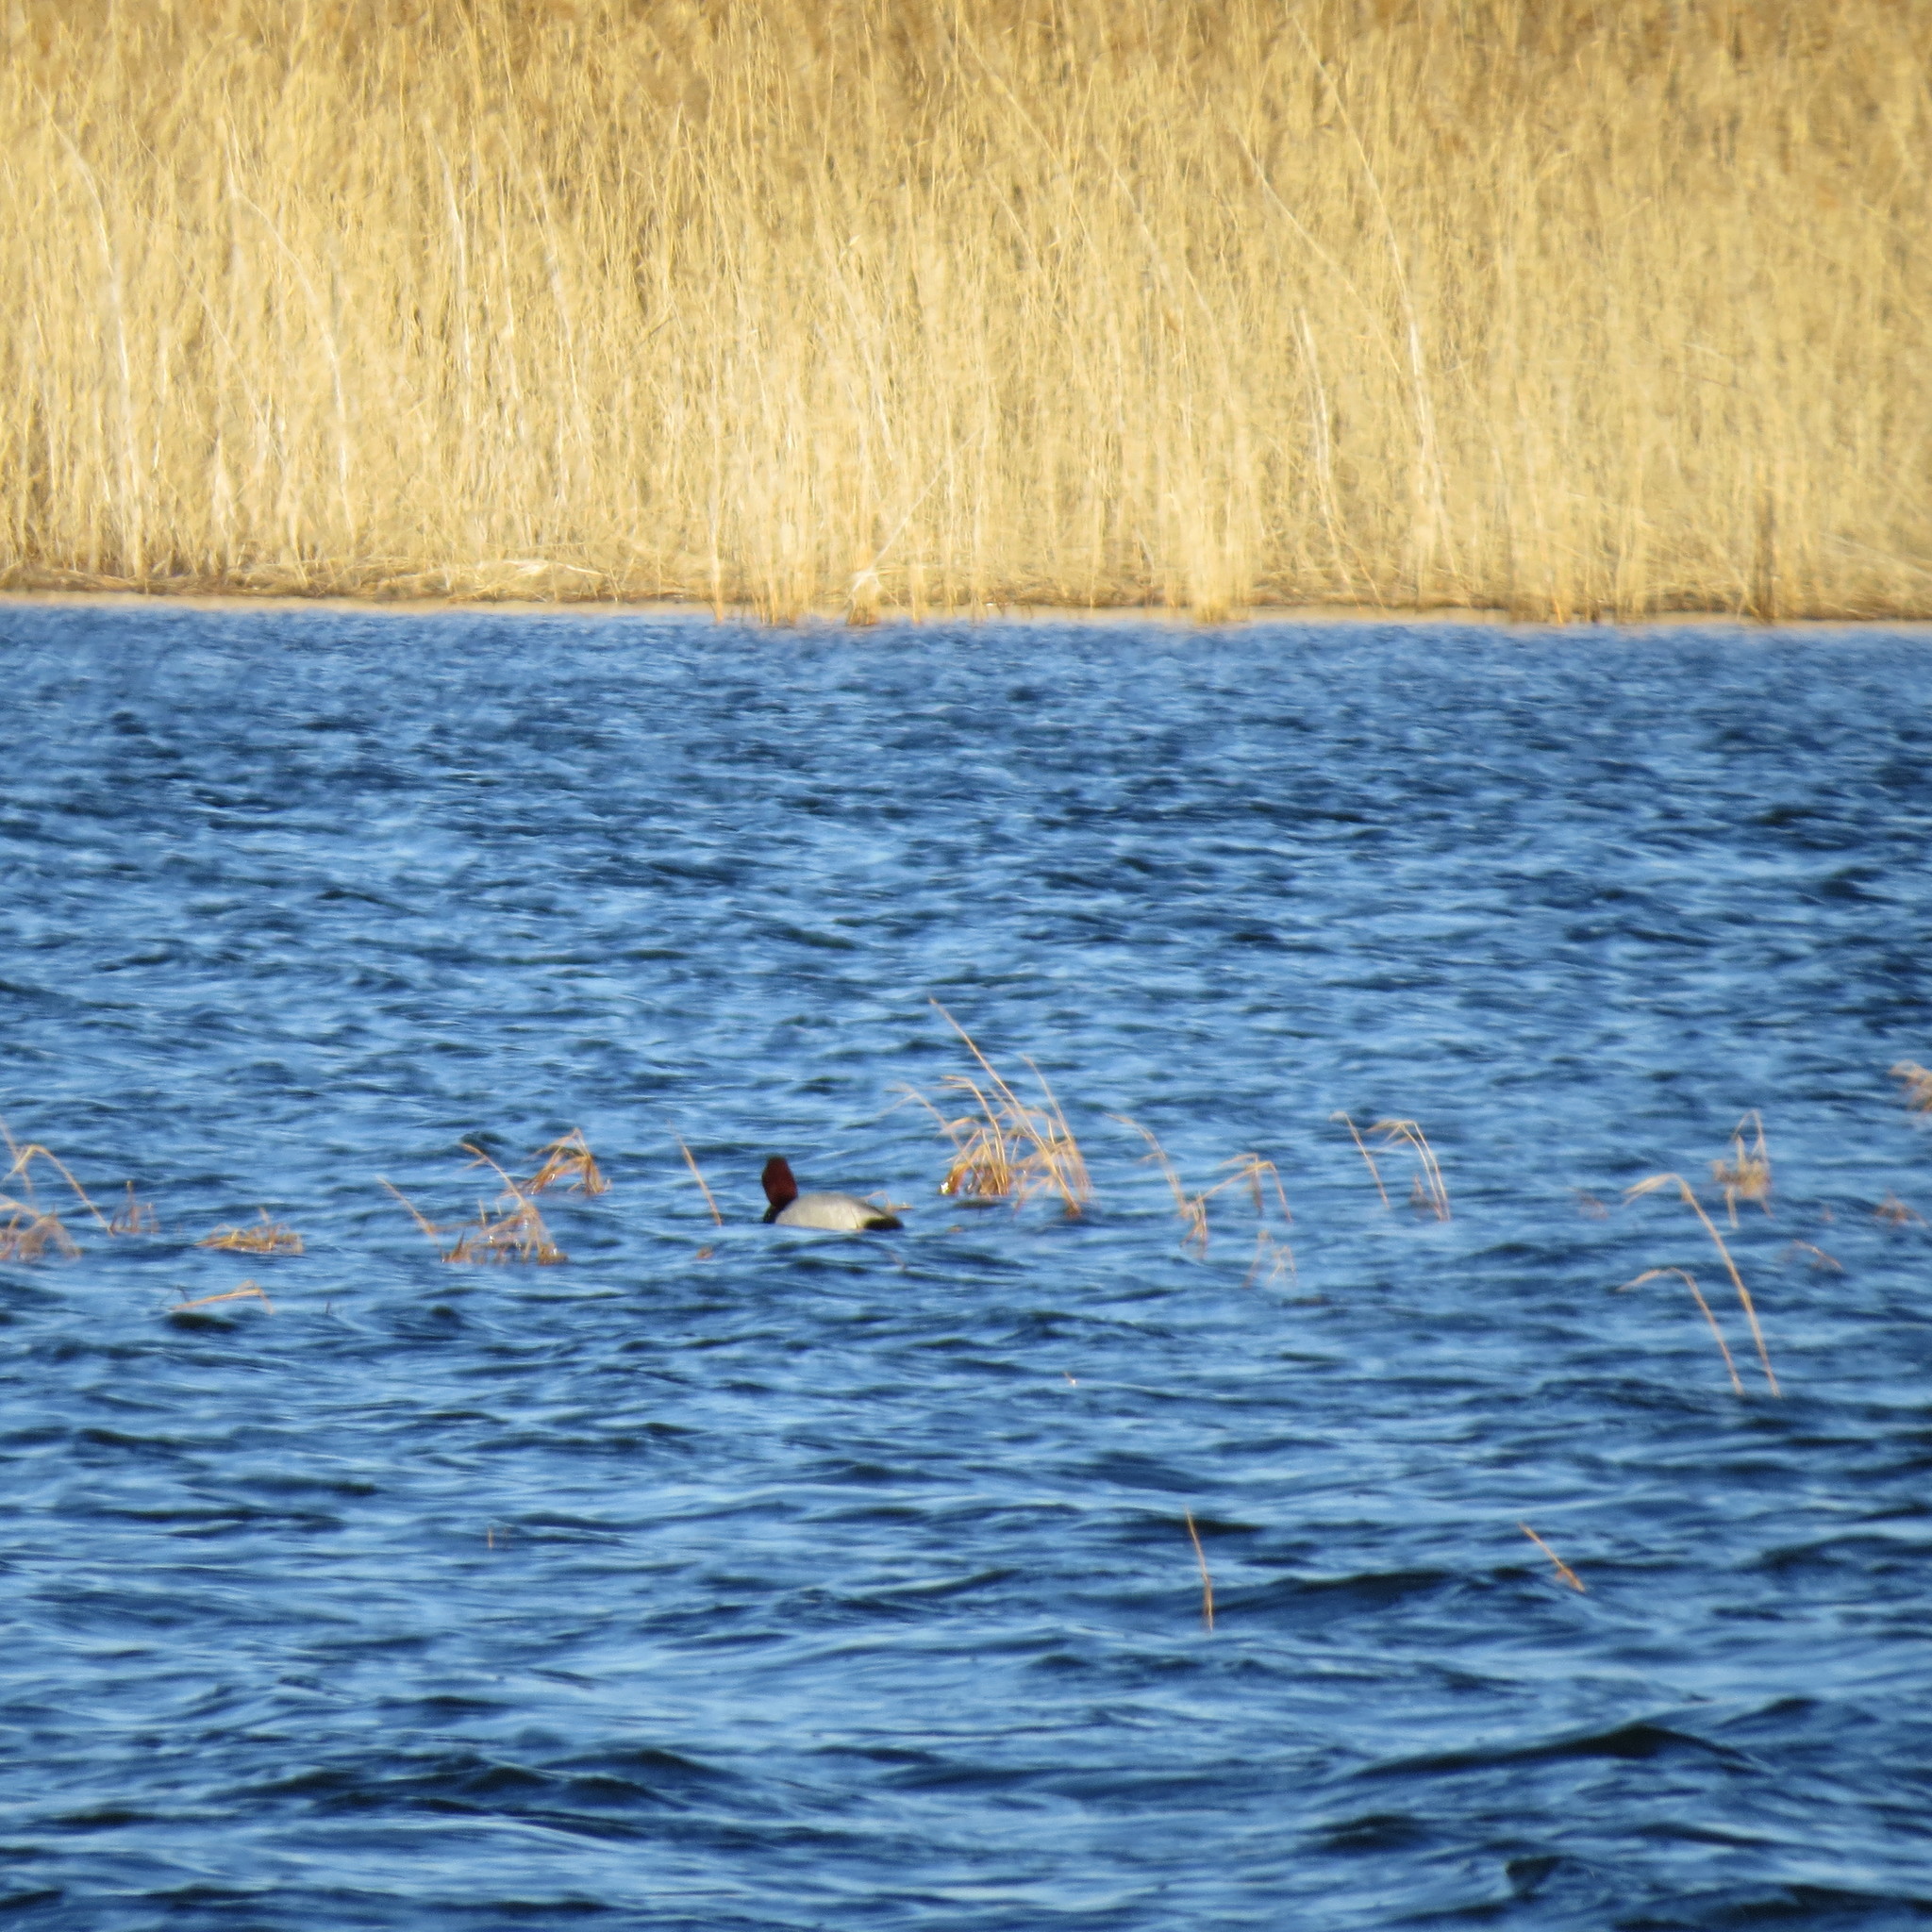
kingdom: Animalia
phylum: Chordata
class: Aves
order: Anseriformes
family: Anatidae
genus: Aythya
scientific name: Aythya ferina
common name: Common pochard
